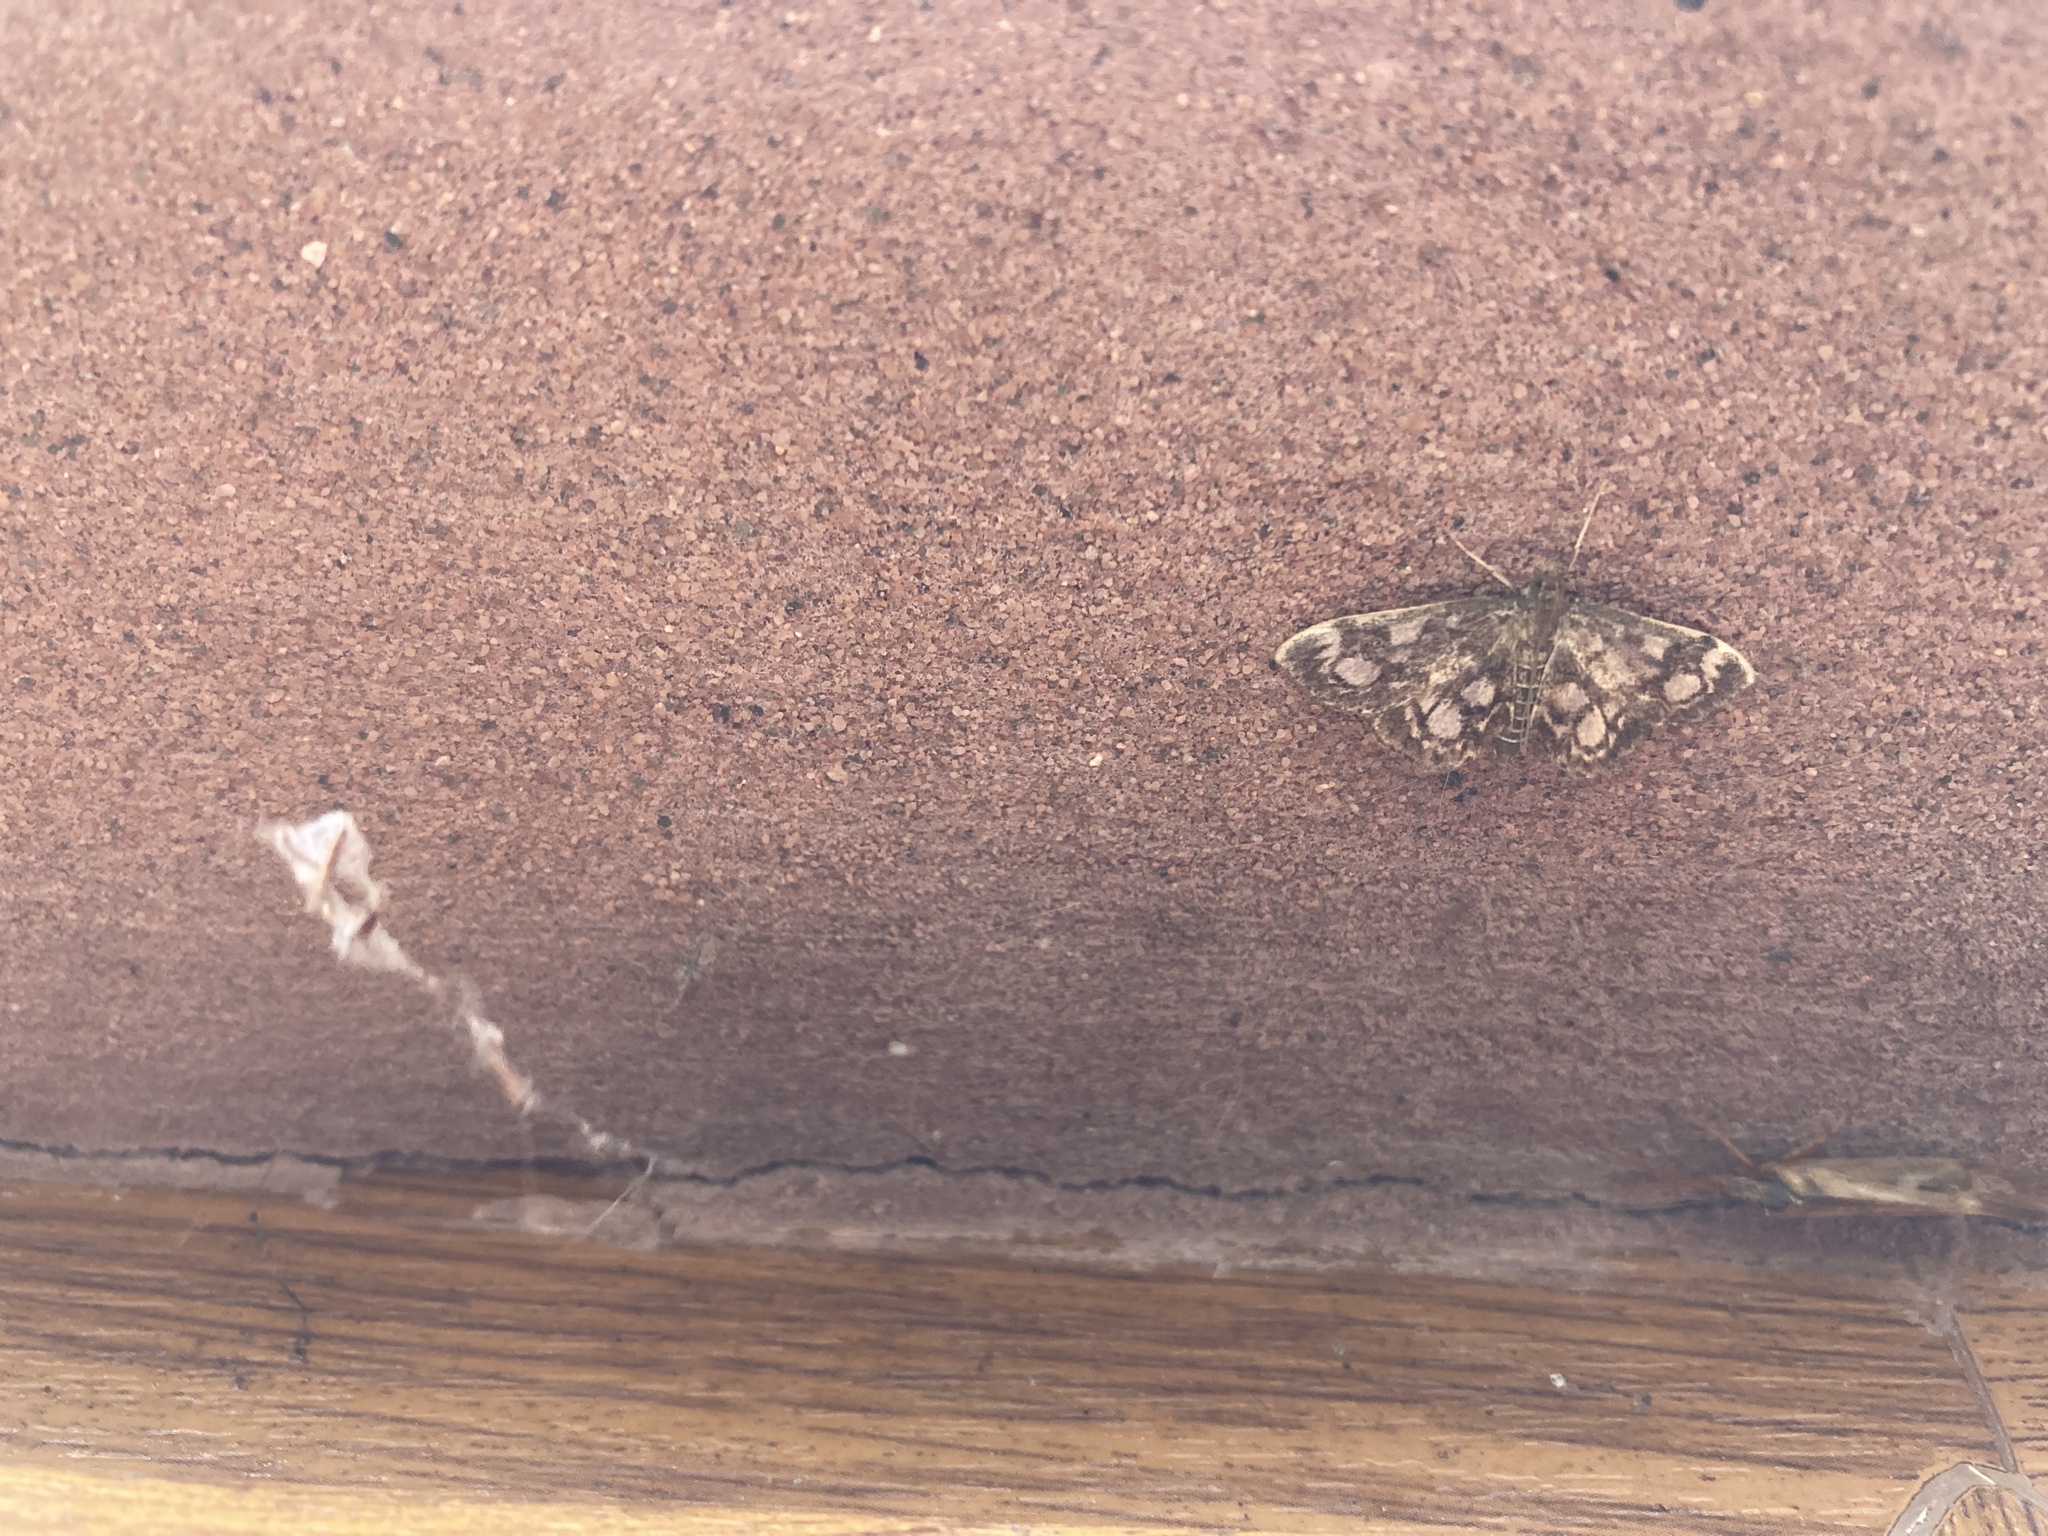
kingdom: Animalia
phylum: Arthropoda
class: Insecta
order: Lepidoptera
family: Crambidae
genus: Anania
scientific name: Anania coronata
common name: Elder pearl
